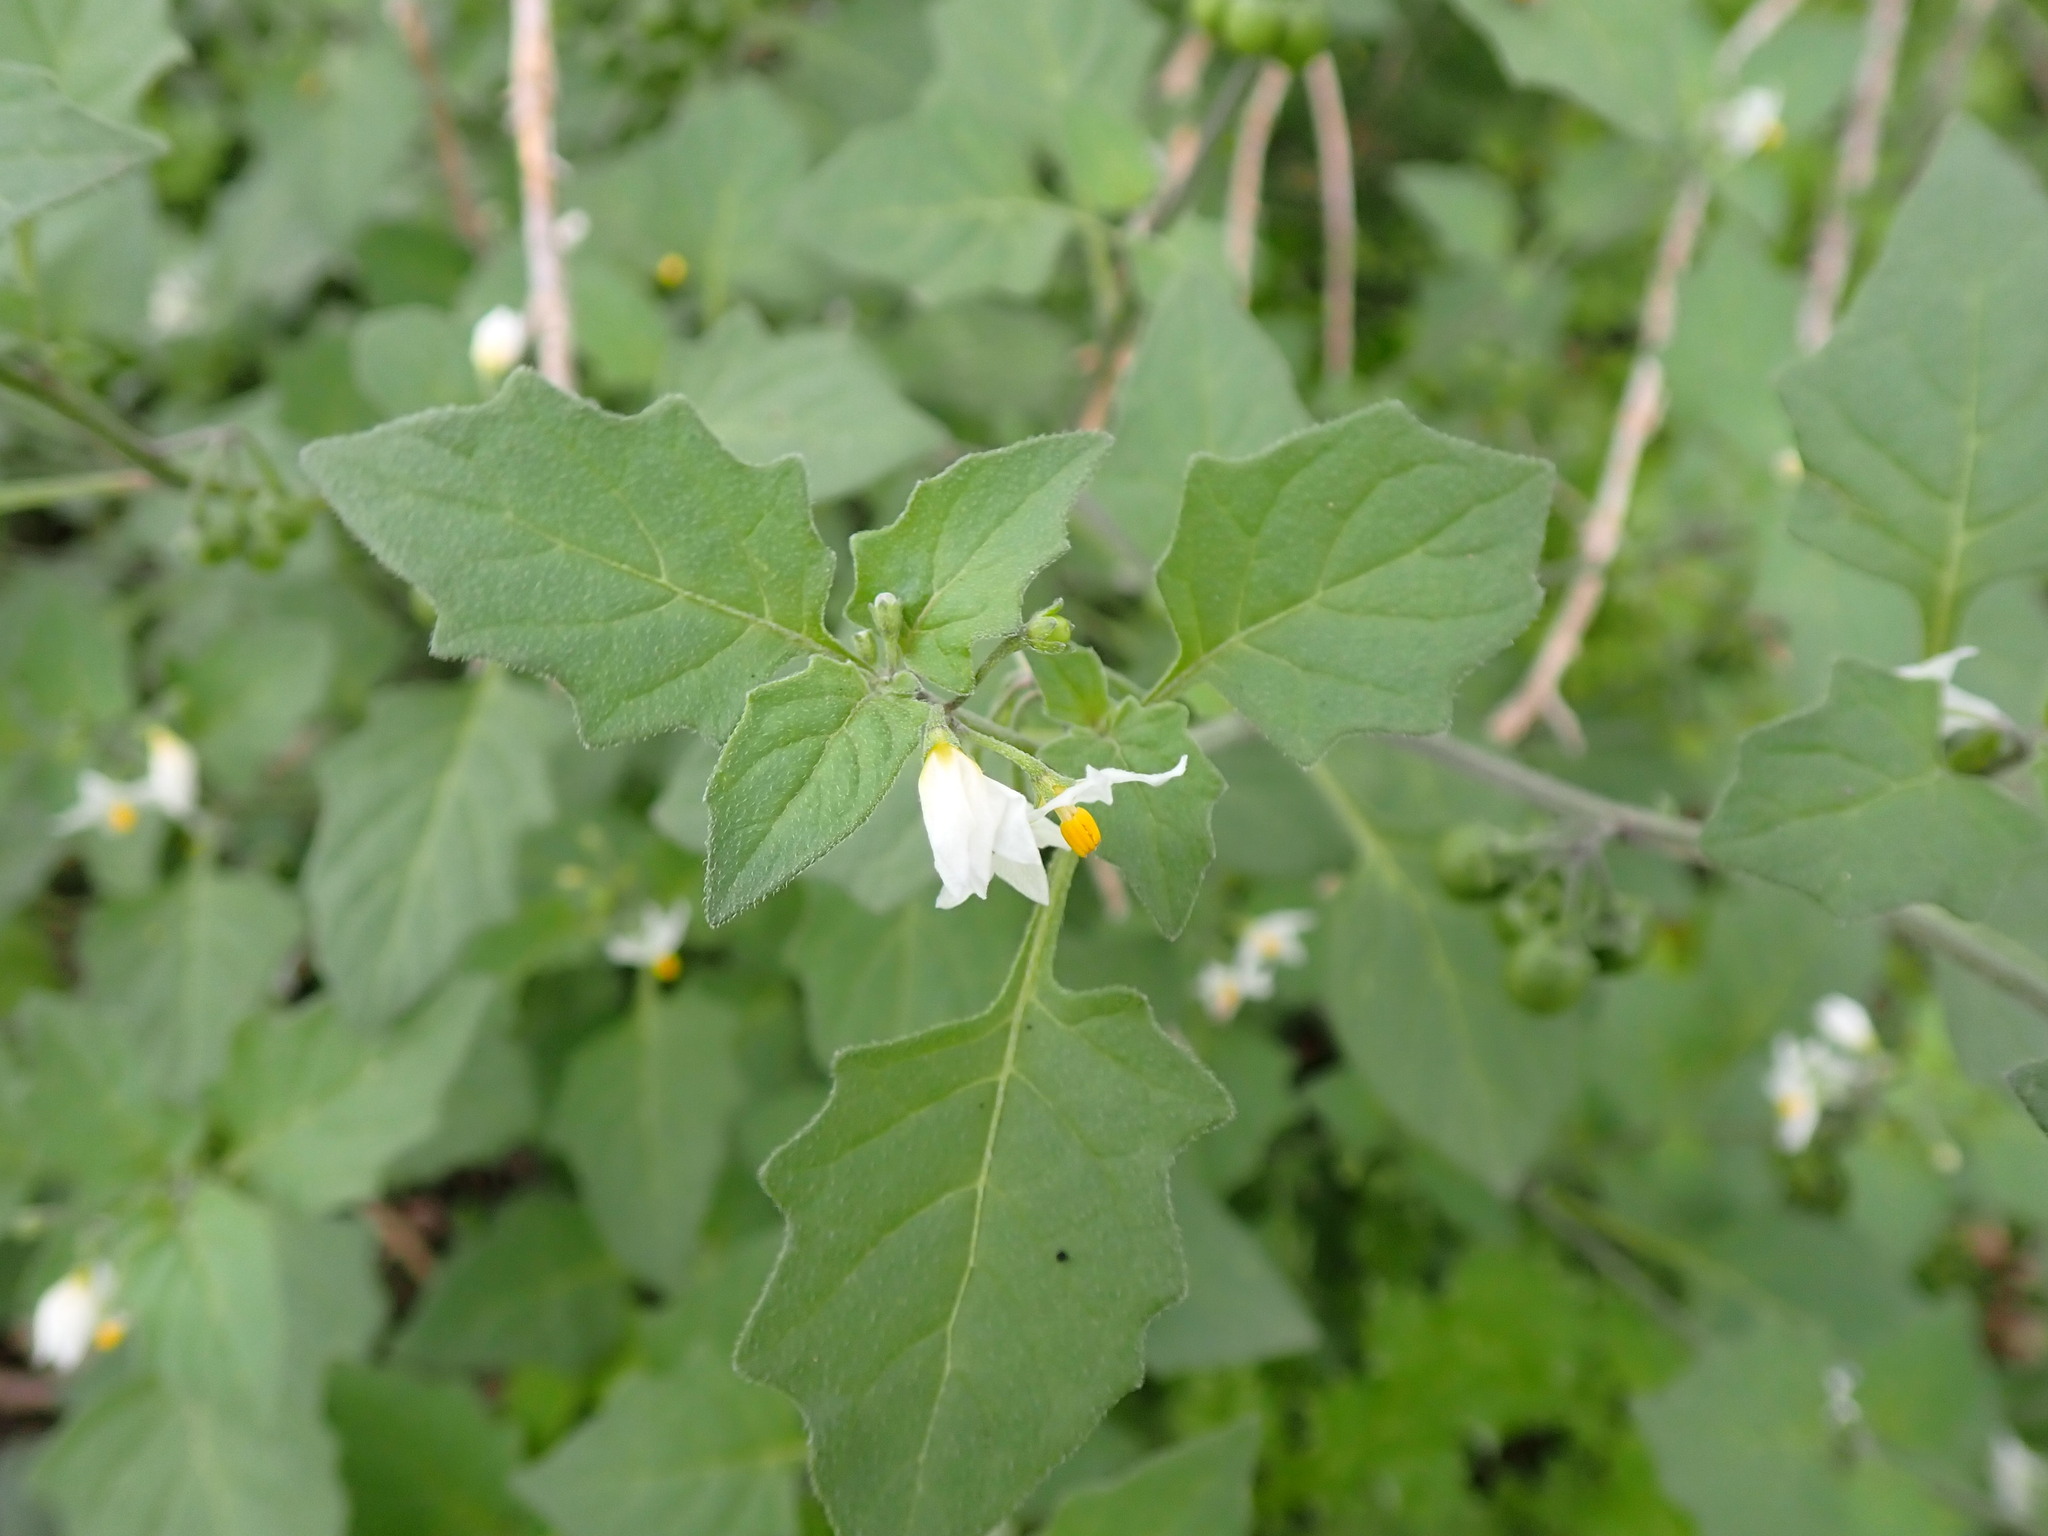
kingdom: Plantae
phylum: Tracheophyta
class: Magnoliopsida
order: Solanales
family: Solanaceae
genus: Solanum
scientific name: Solanum nigrum
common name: Black nightshade
